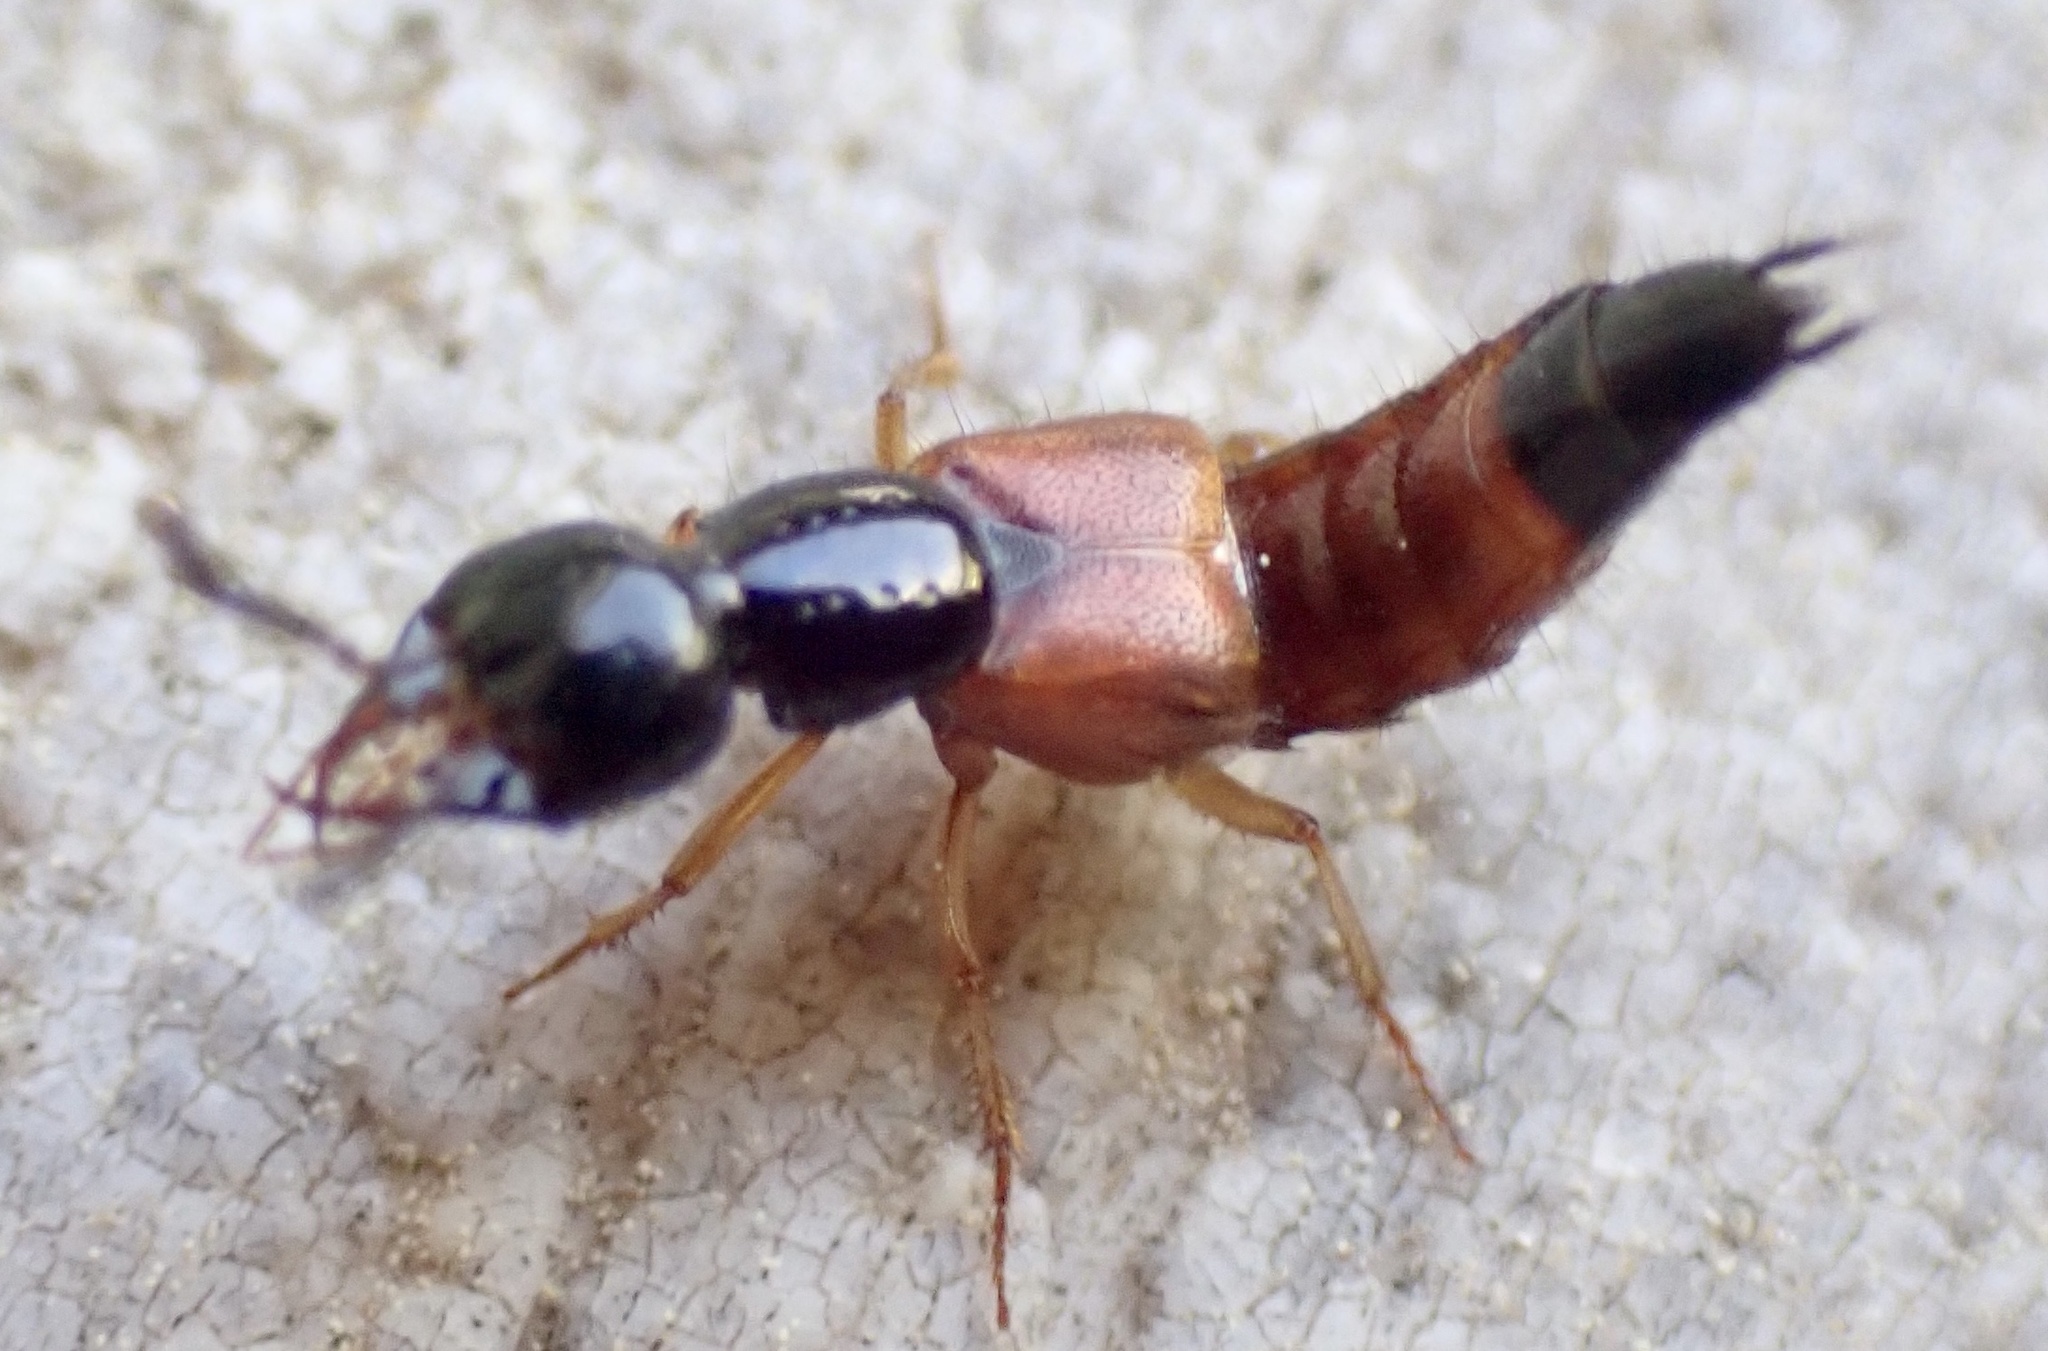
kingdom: Animalia
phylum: Arthropoda
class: Insecta
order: Coleoptera
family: Staphylinidae
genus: Belonuchus
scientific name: Belonuchus rufipennis
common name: Large rove beetle
